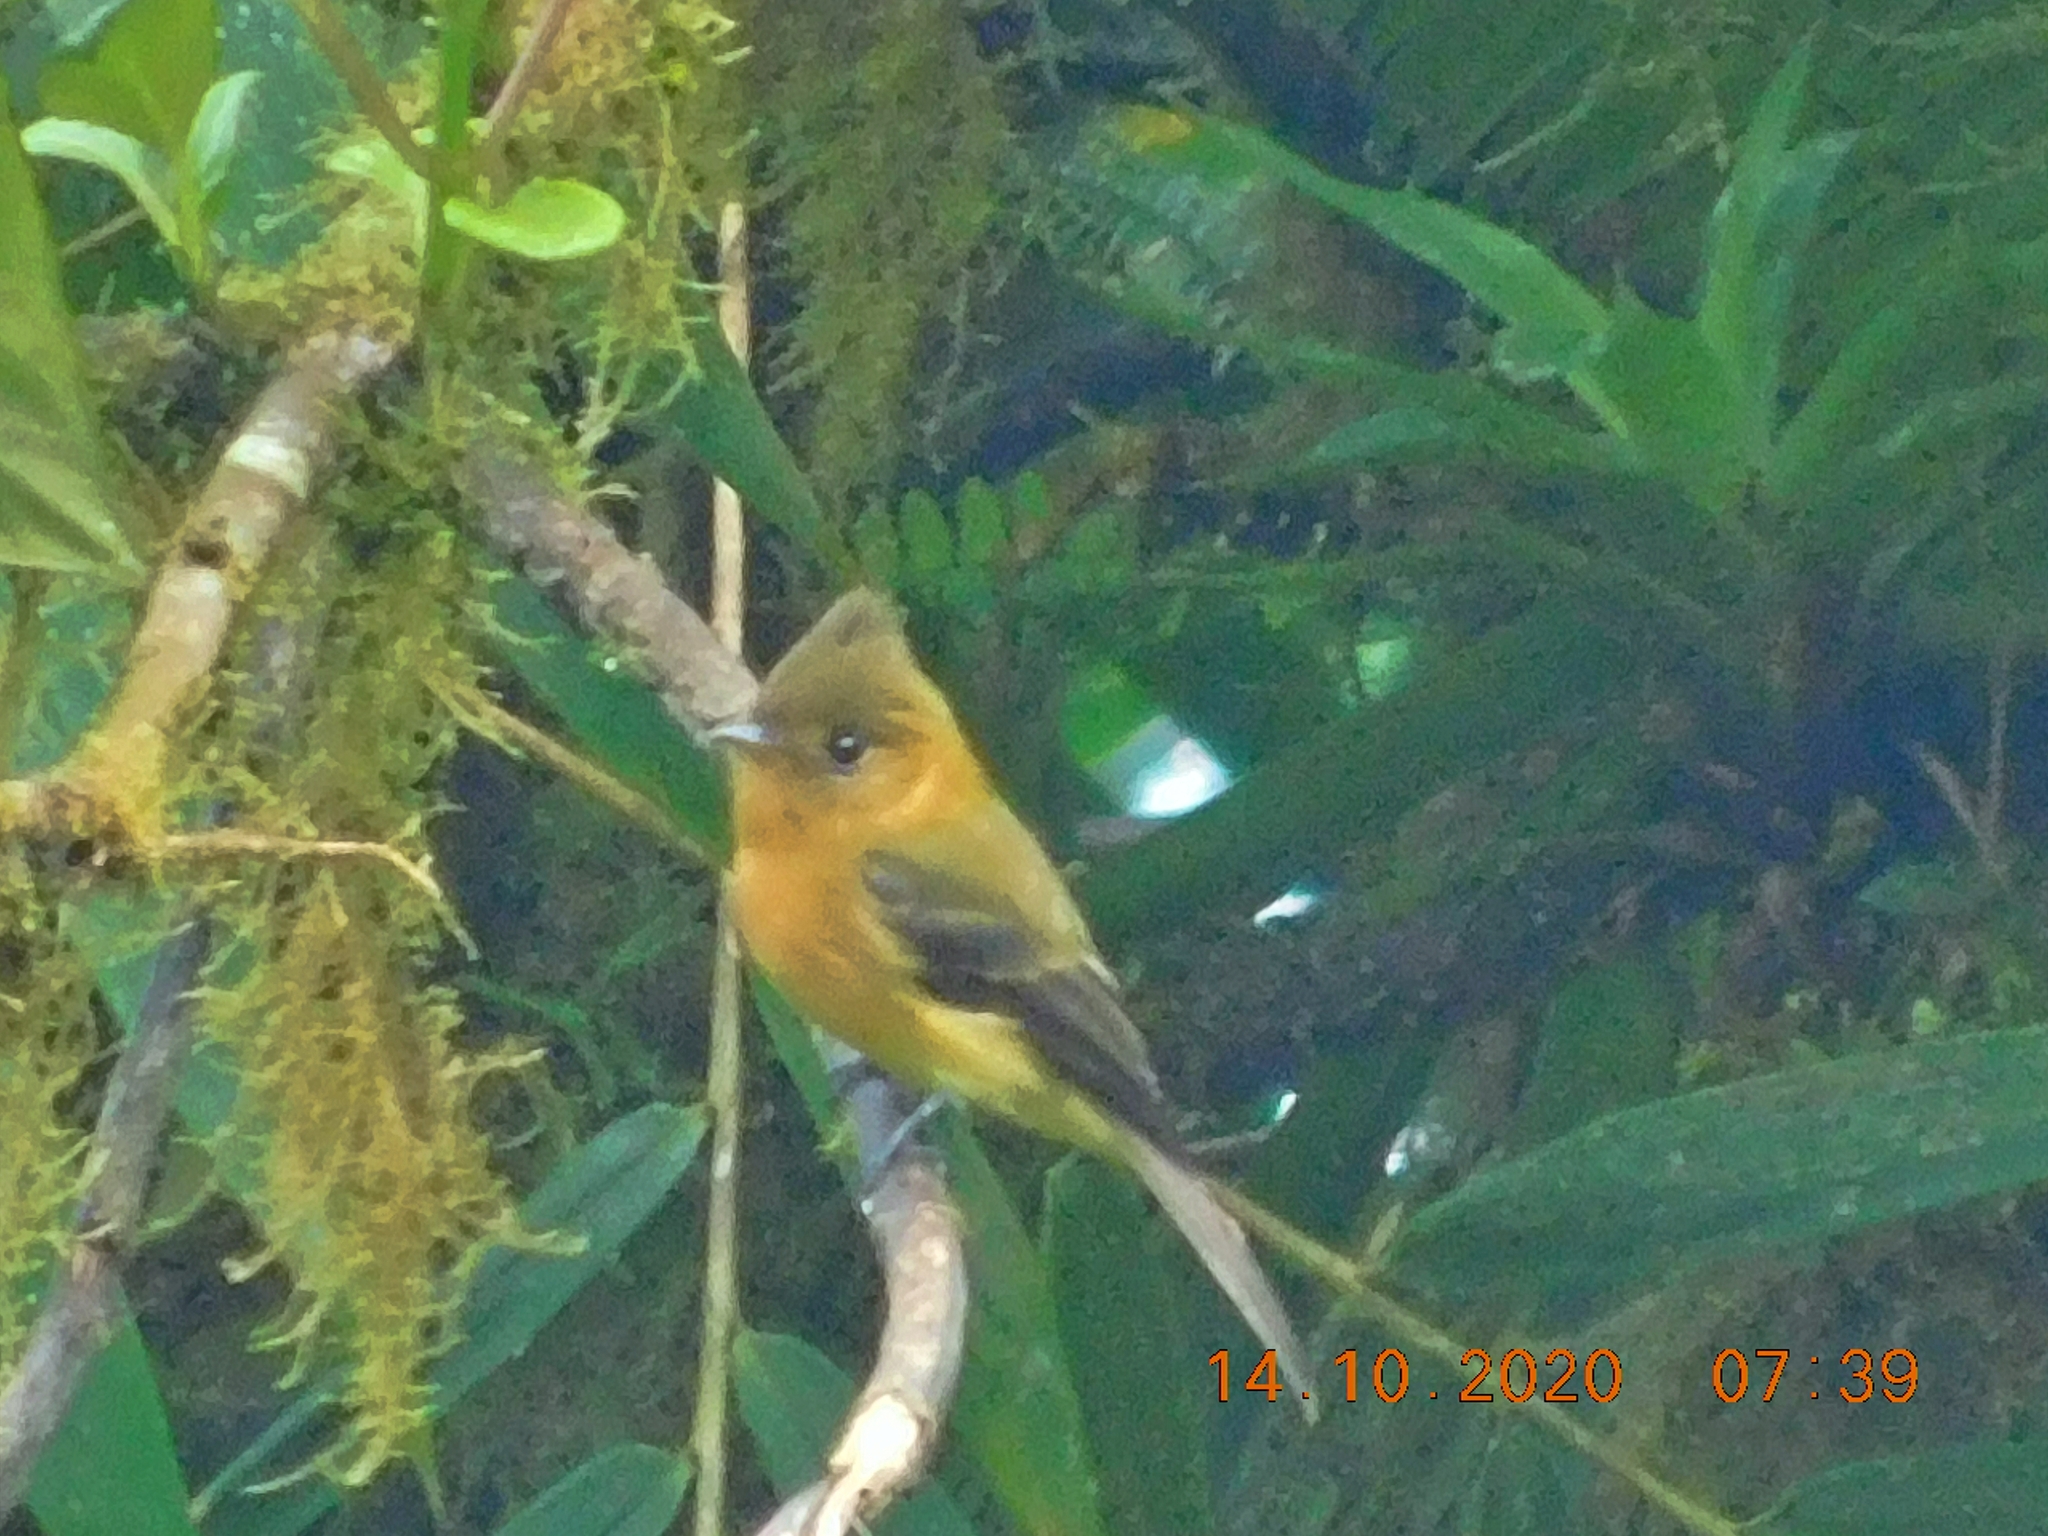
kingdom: Animalia
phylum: Chordata
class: Aves
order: Passeriformes
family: Tyrannidae
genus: Mitrephanes
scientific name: Mitrephanes phaeocercus
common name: Northern tufted flycatcher
